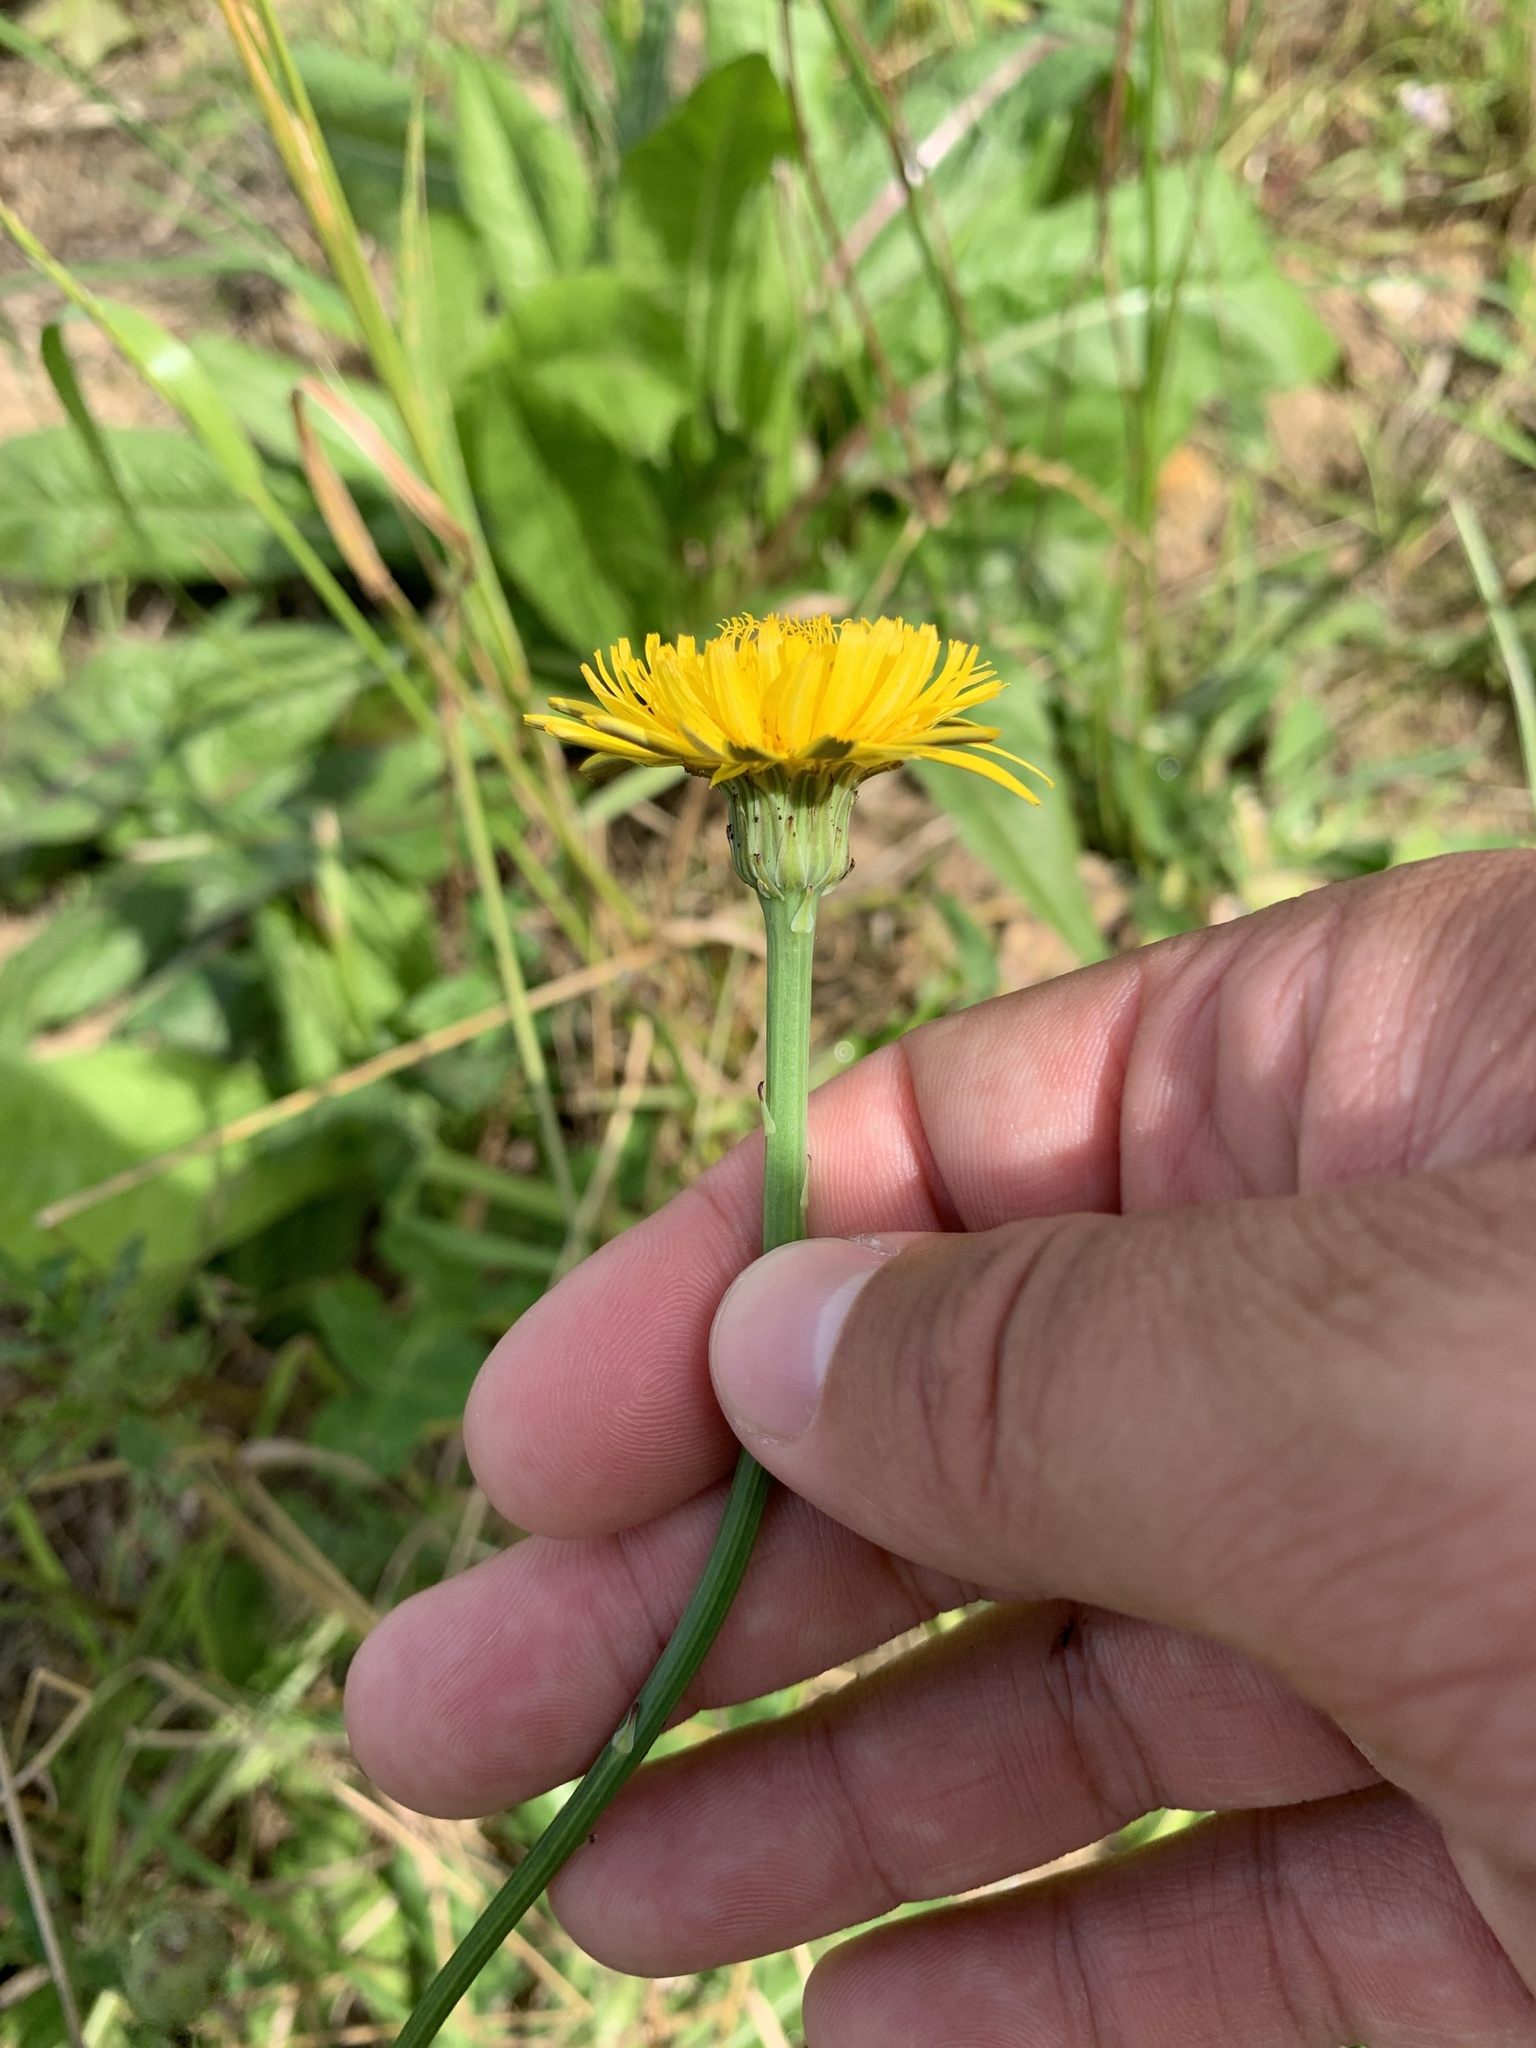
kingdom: Plantae
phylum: Tracheophyta
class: Magnoliopsida
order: Asterales
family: Asteraceae
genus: Hypochaeris
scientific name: Hypochaeris radicata
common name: Flatweed
